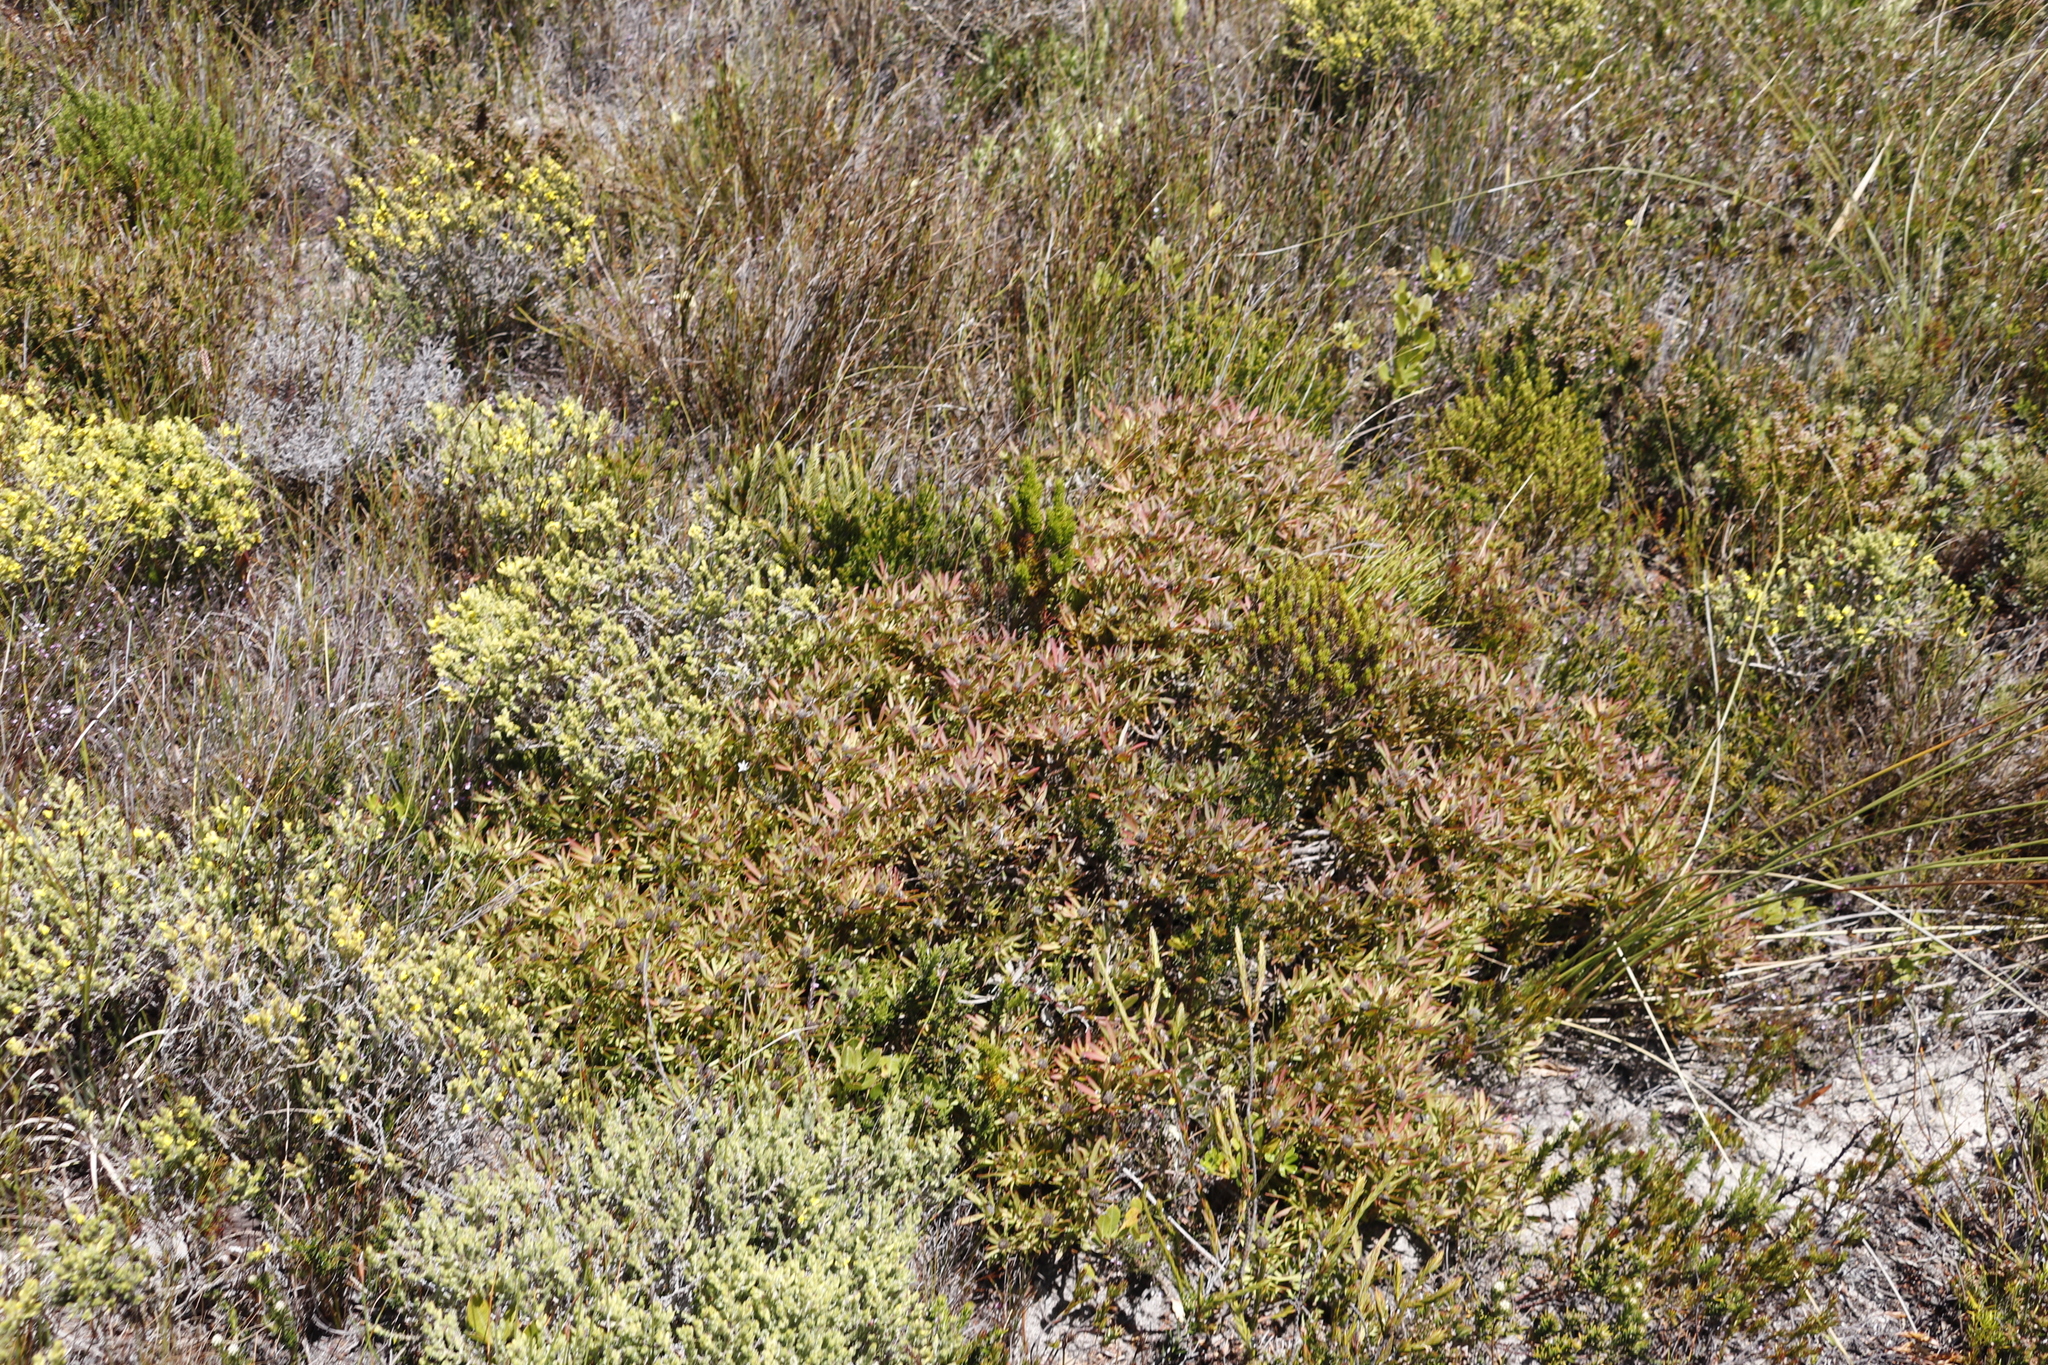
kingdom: Plantae
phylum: Tracheophyta
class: Magnoliopsida
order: Proteales
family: Proteaceae
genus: Leucadendron
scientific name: Leucadendron salignum
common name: Common sunshine conebush
